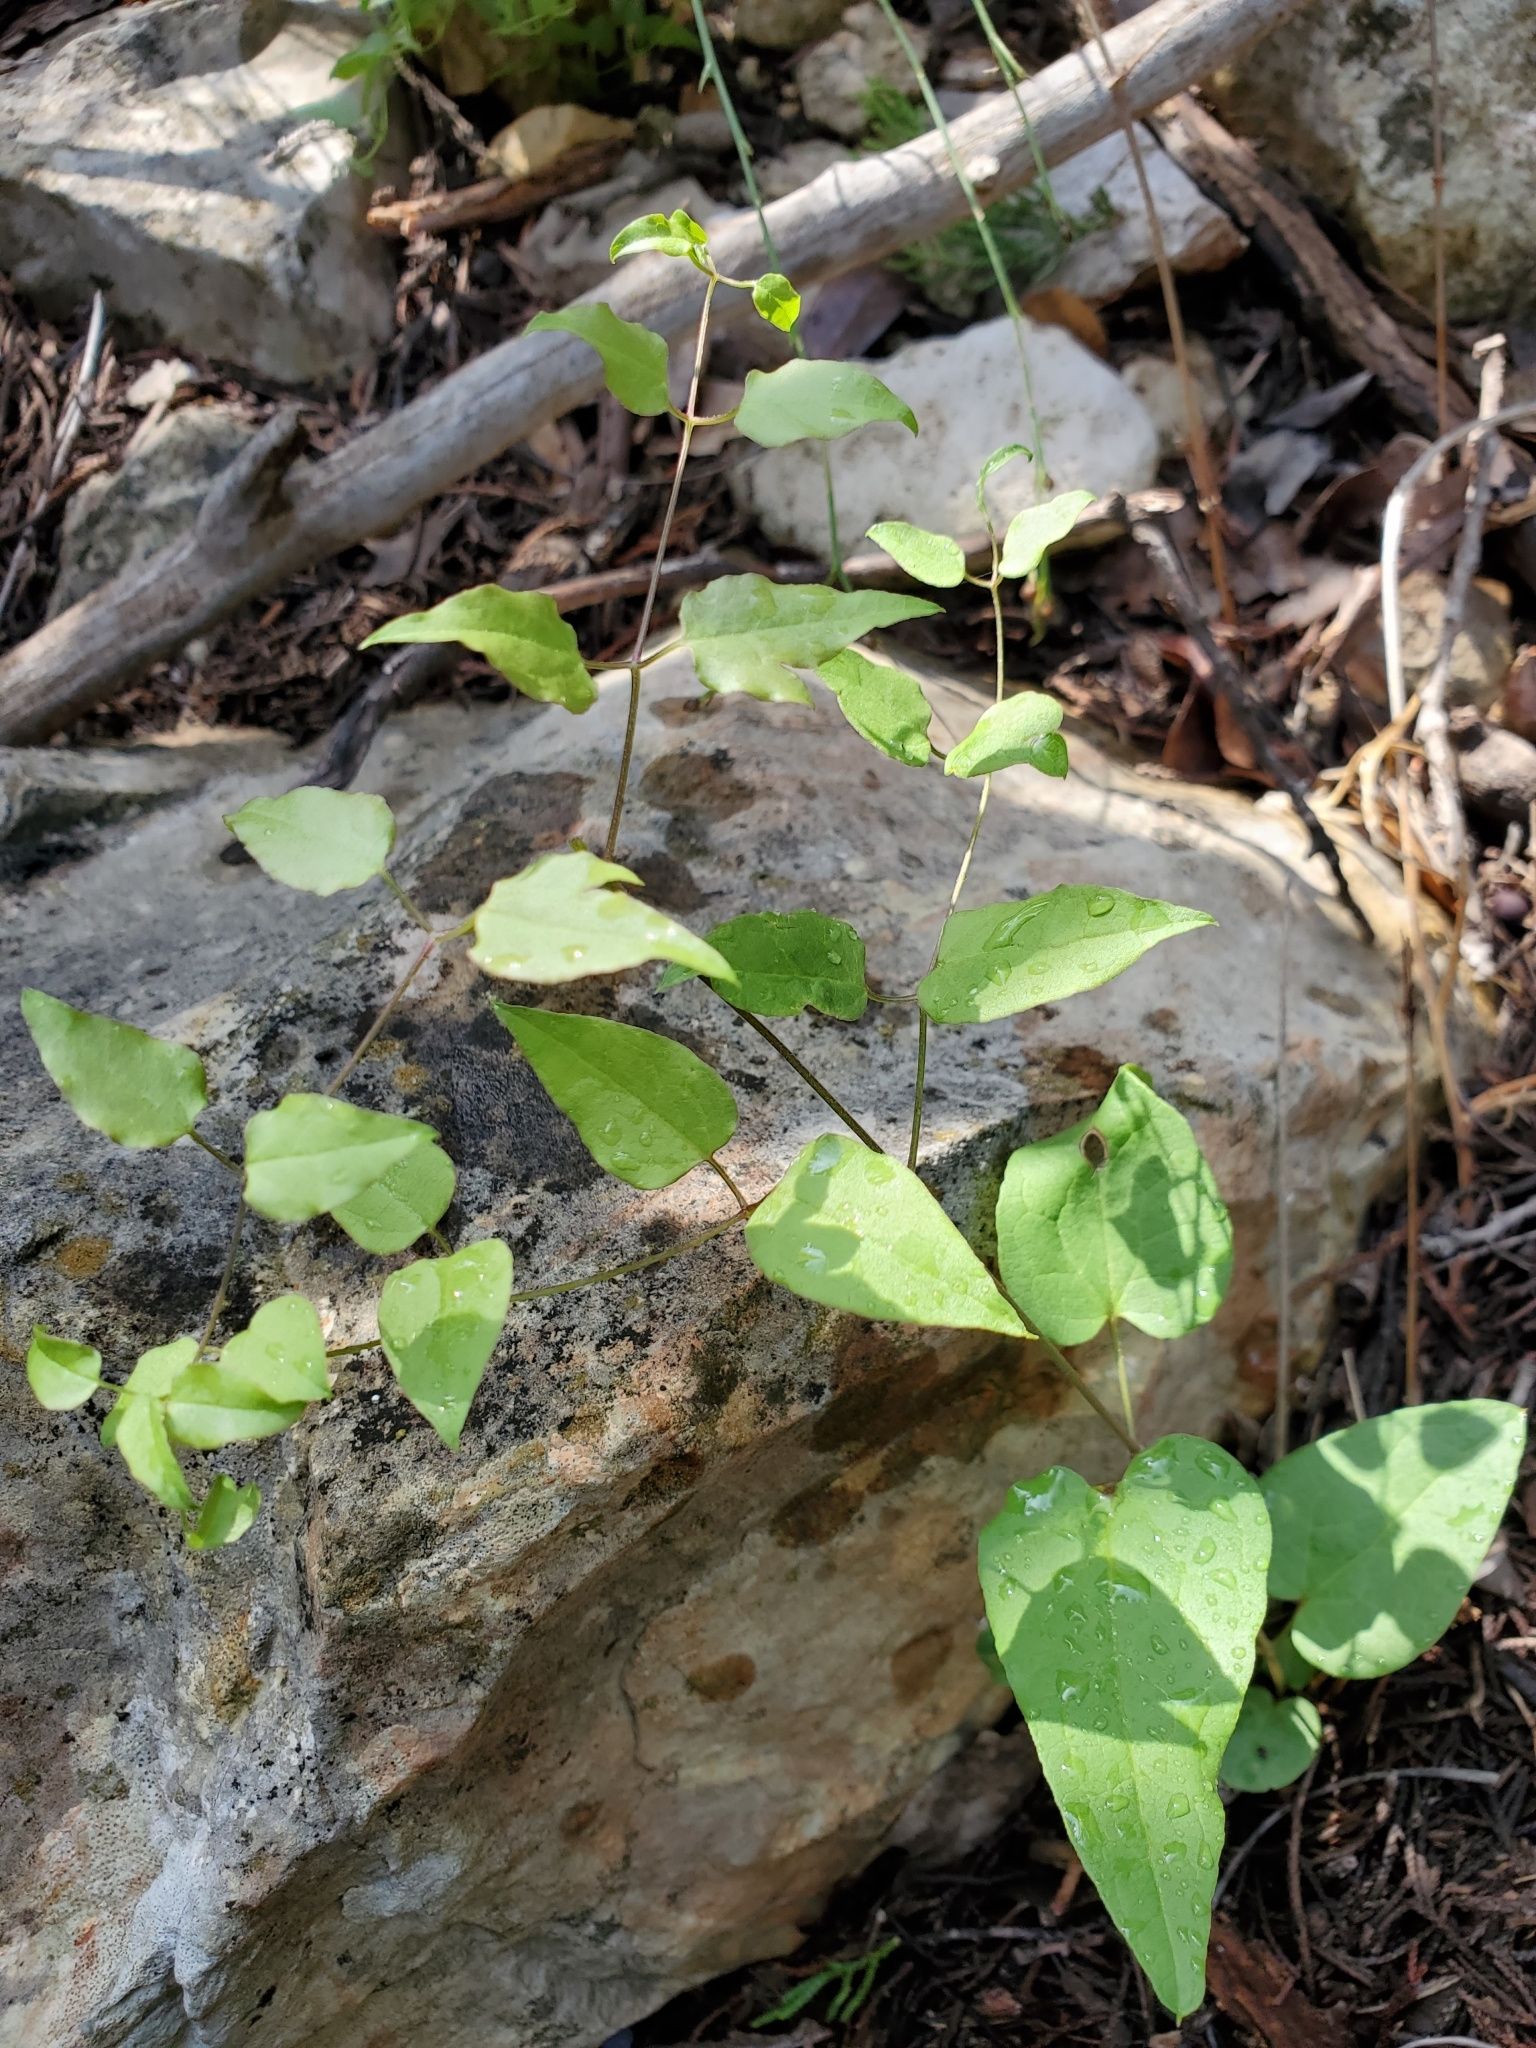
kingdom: Plantae
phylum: Tracheophyta
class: Magnoliopsida
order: Ranunculales
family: Ranunculaceae
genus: Clematis
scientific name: Clematis pitcheri
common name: Bellflower clematis
